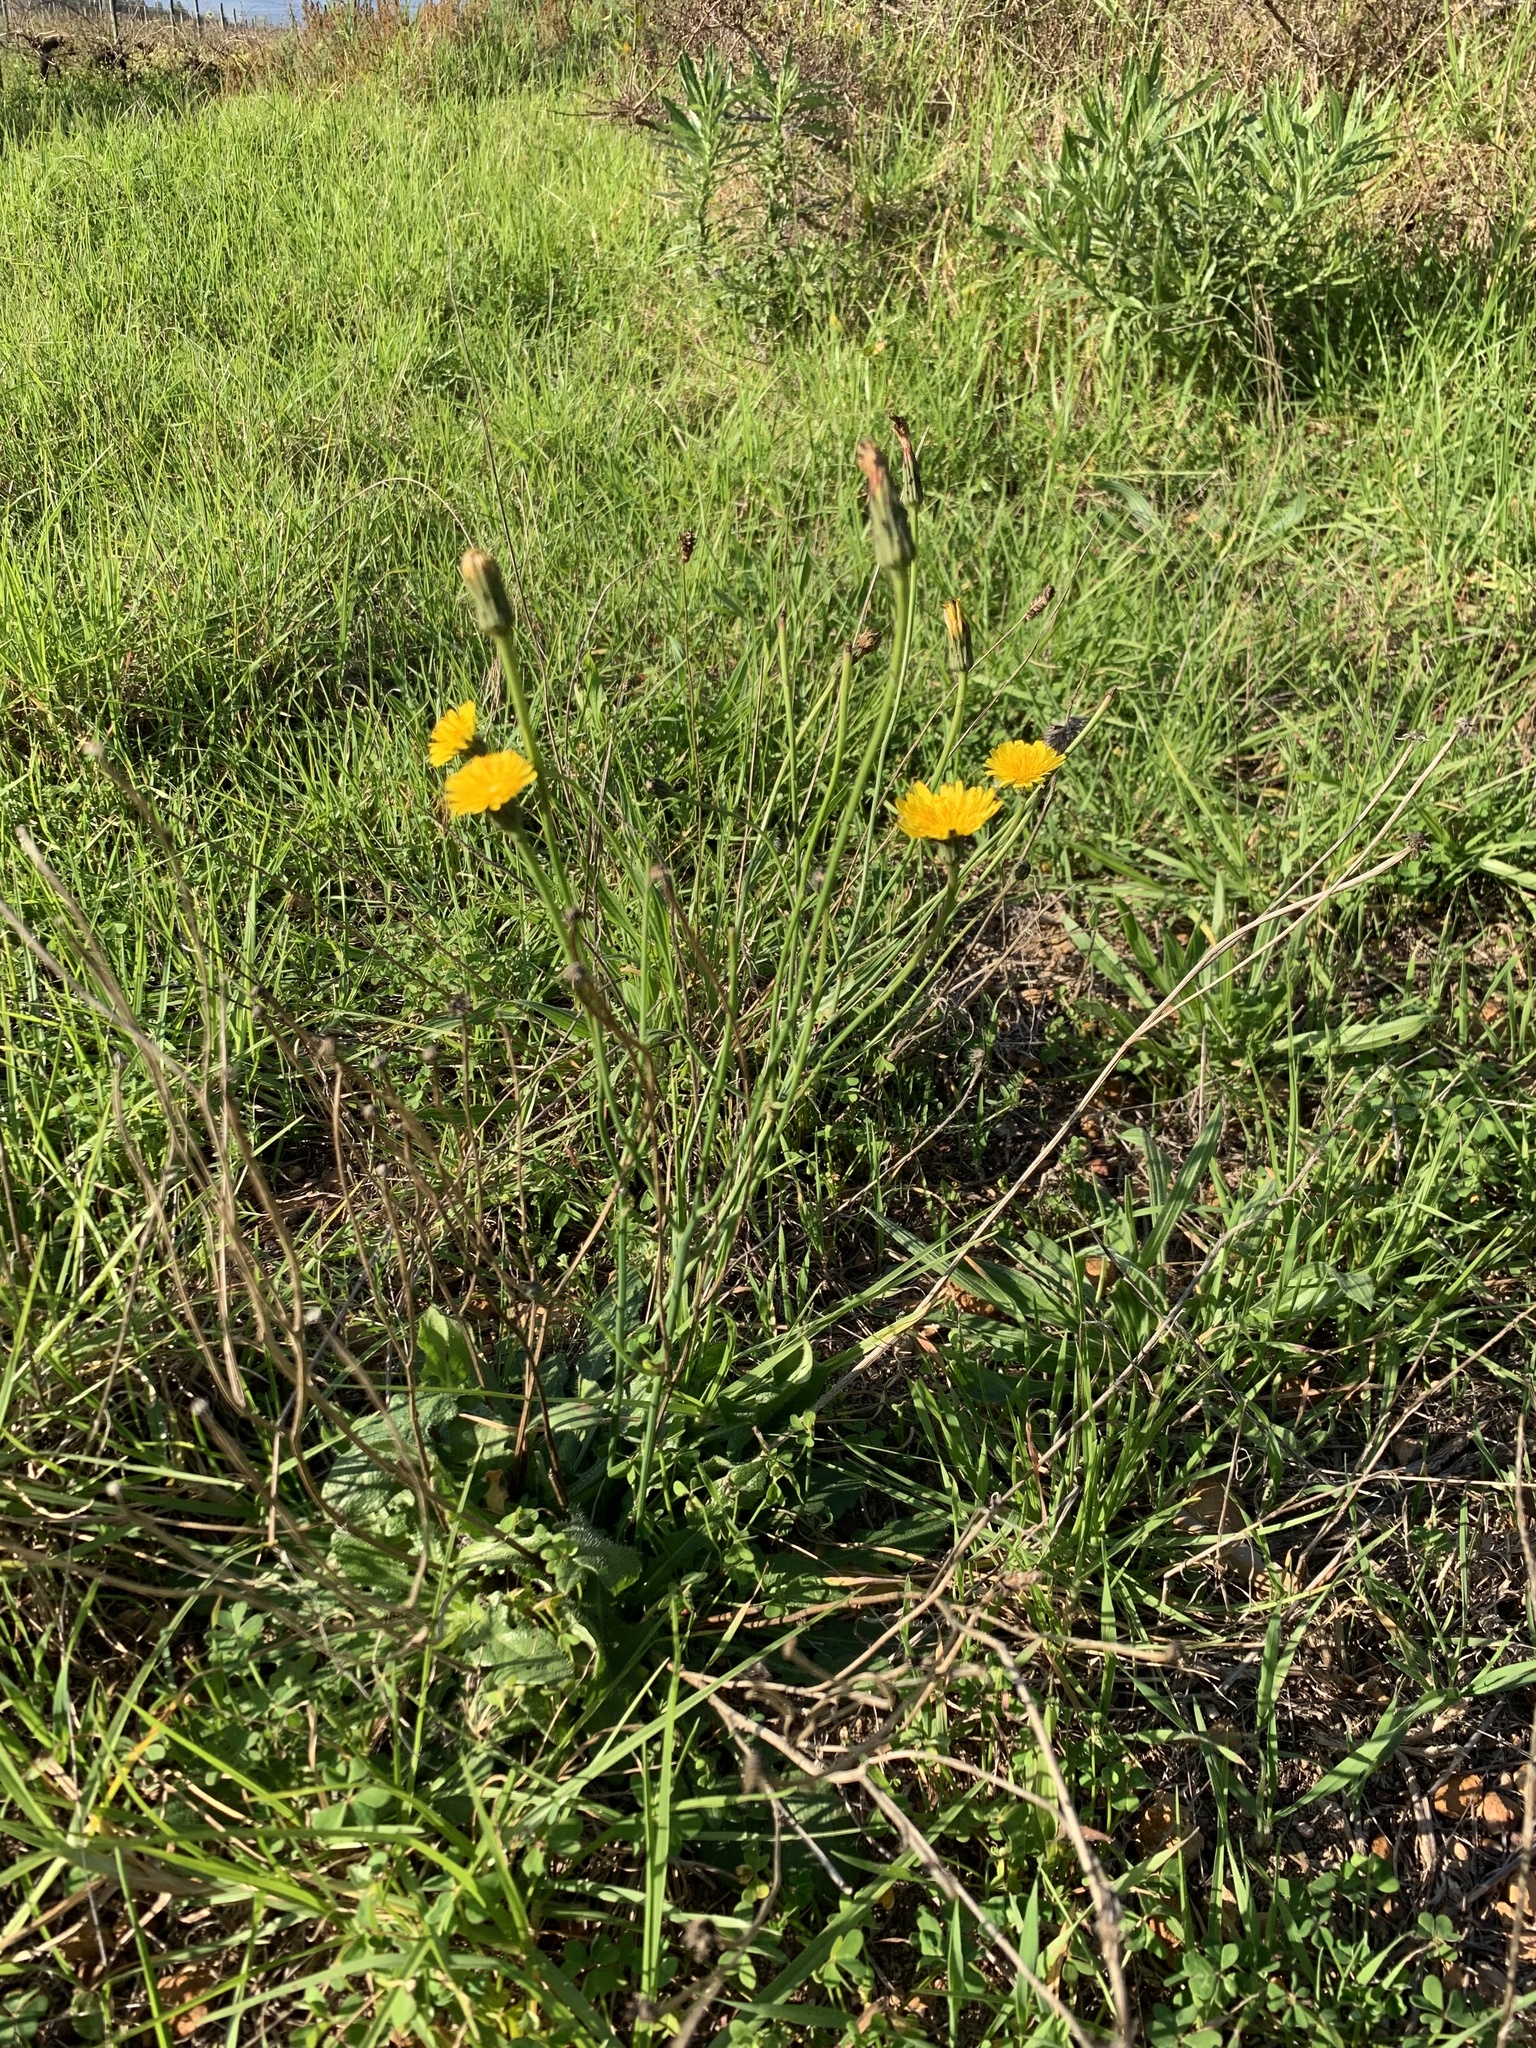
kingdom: Plantae
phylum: Tracheophyta
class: Magnoliopsida
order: Asterales
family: Asteraceae
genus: Hypochaeris
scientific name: Hypochaeris radicata
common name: Flatweed
